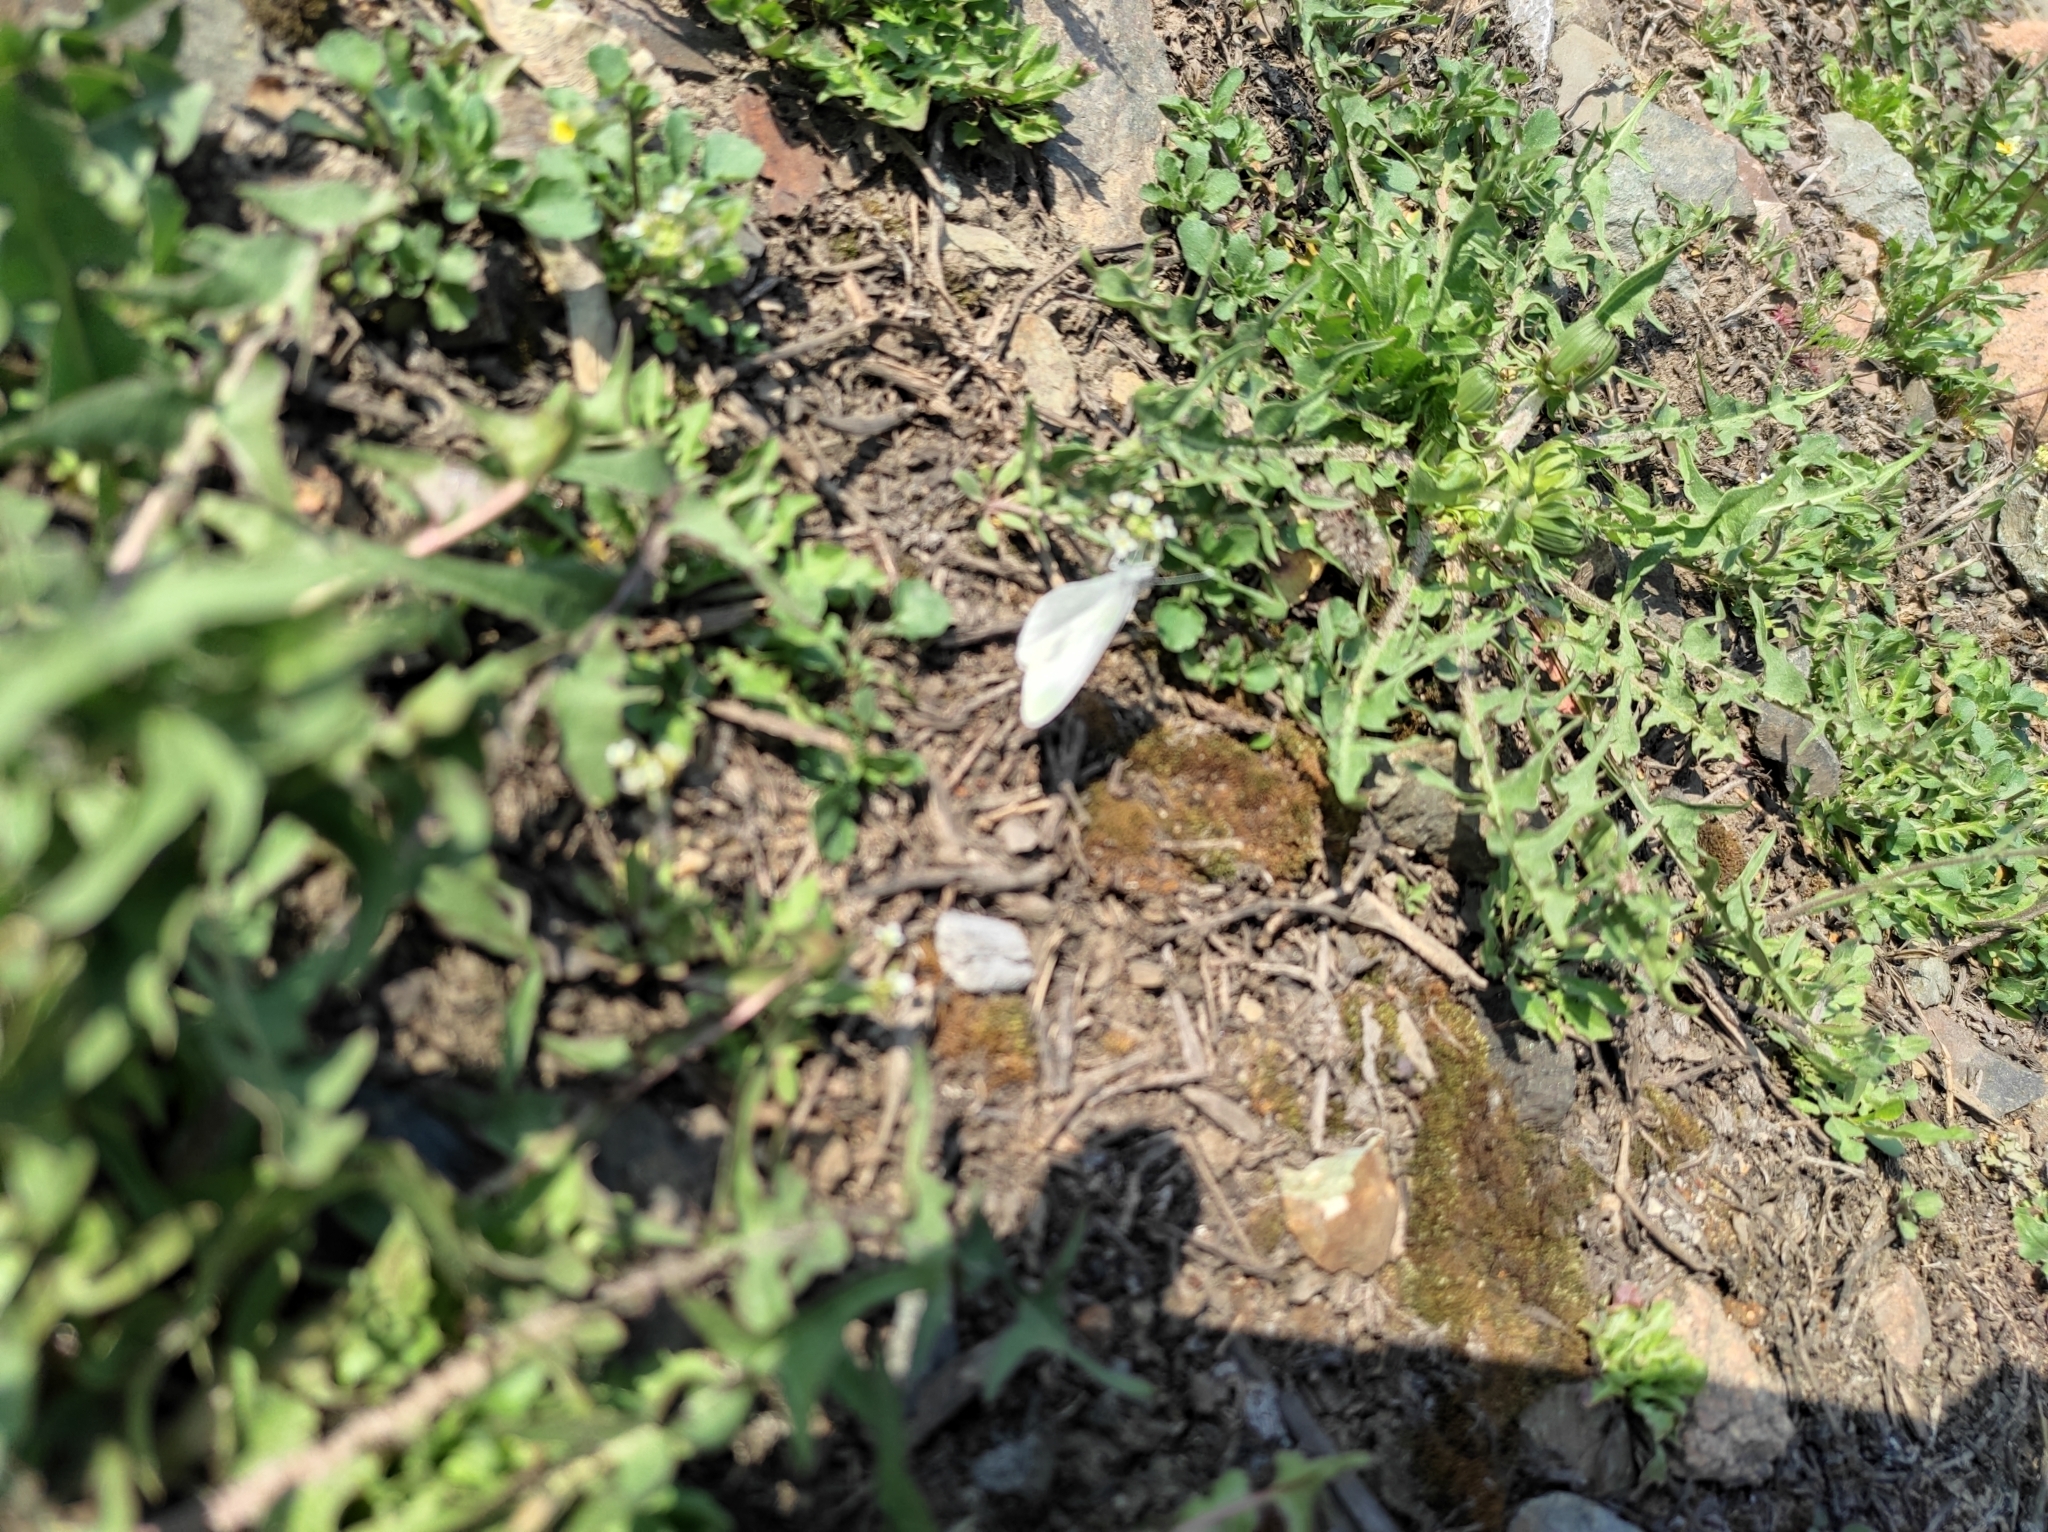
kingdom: Plantae
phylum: Tracheophyta
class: Magnoliopsida
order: Brassicales
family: Brassicaceae
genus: Capsella
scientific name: Capsella bursa-pastoris
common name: Shepherd's purse
